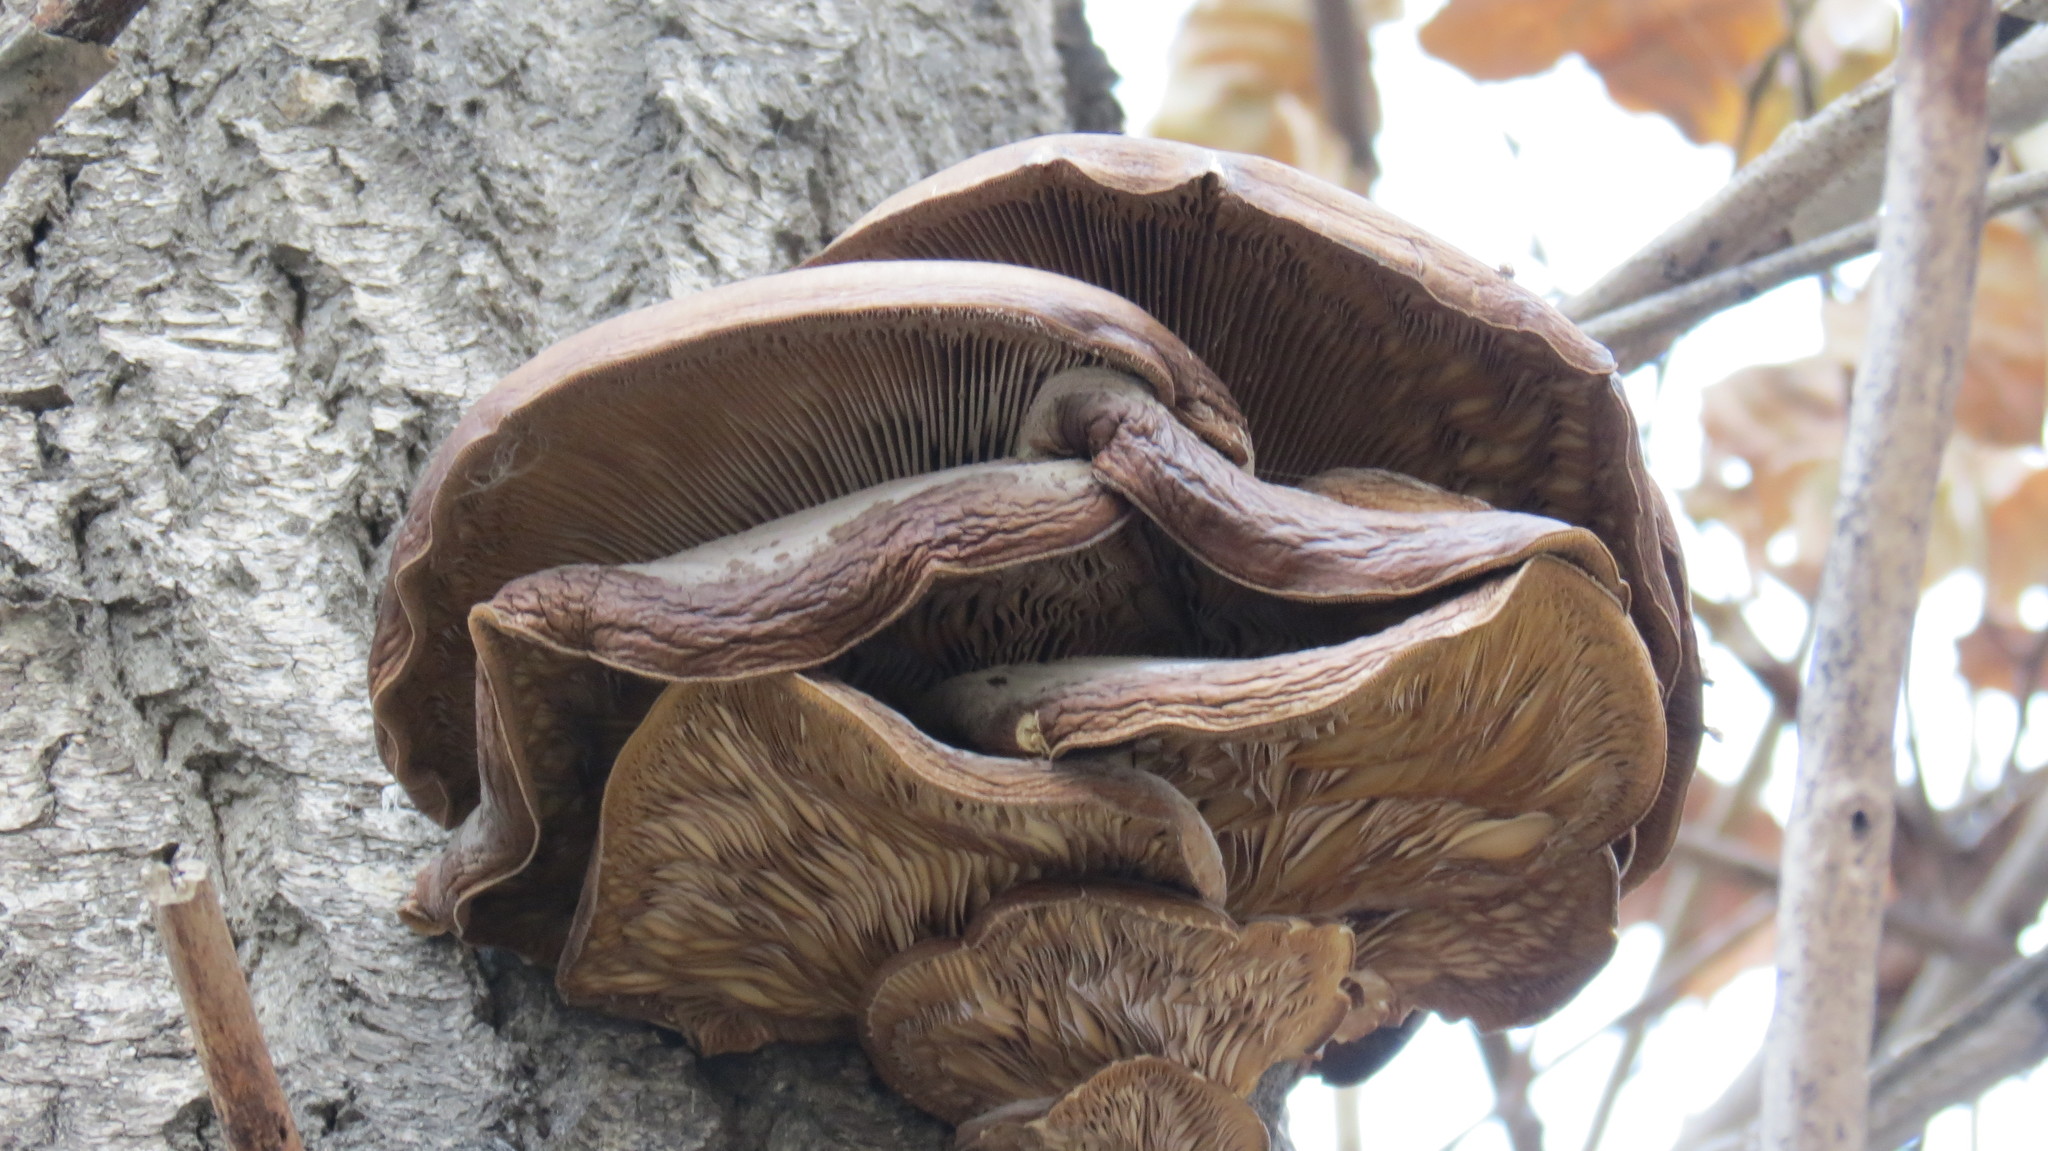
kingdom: Fungi
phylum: Basidiomycota
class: Agaricomycetes
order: Agaricales
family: Pleurotaceae
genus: Pleurotus
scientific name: Pleurotus ostreatus
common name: Oyster mushroom
